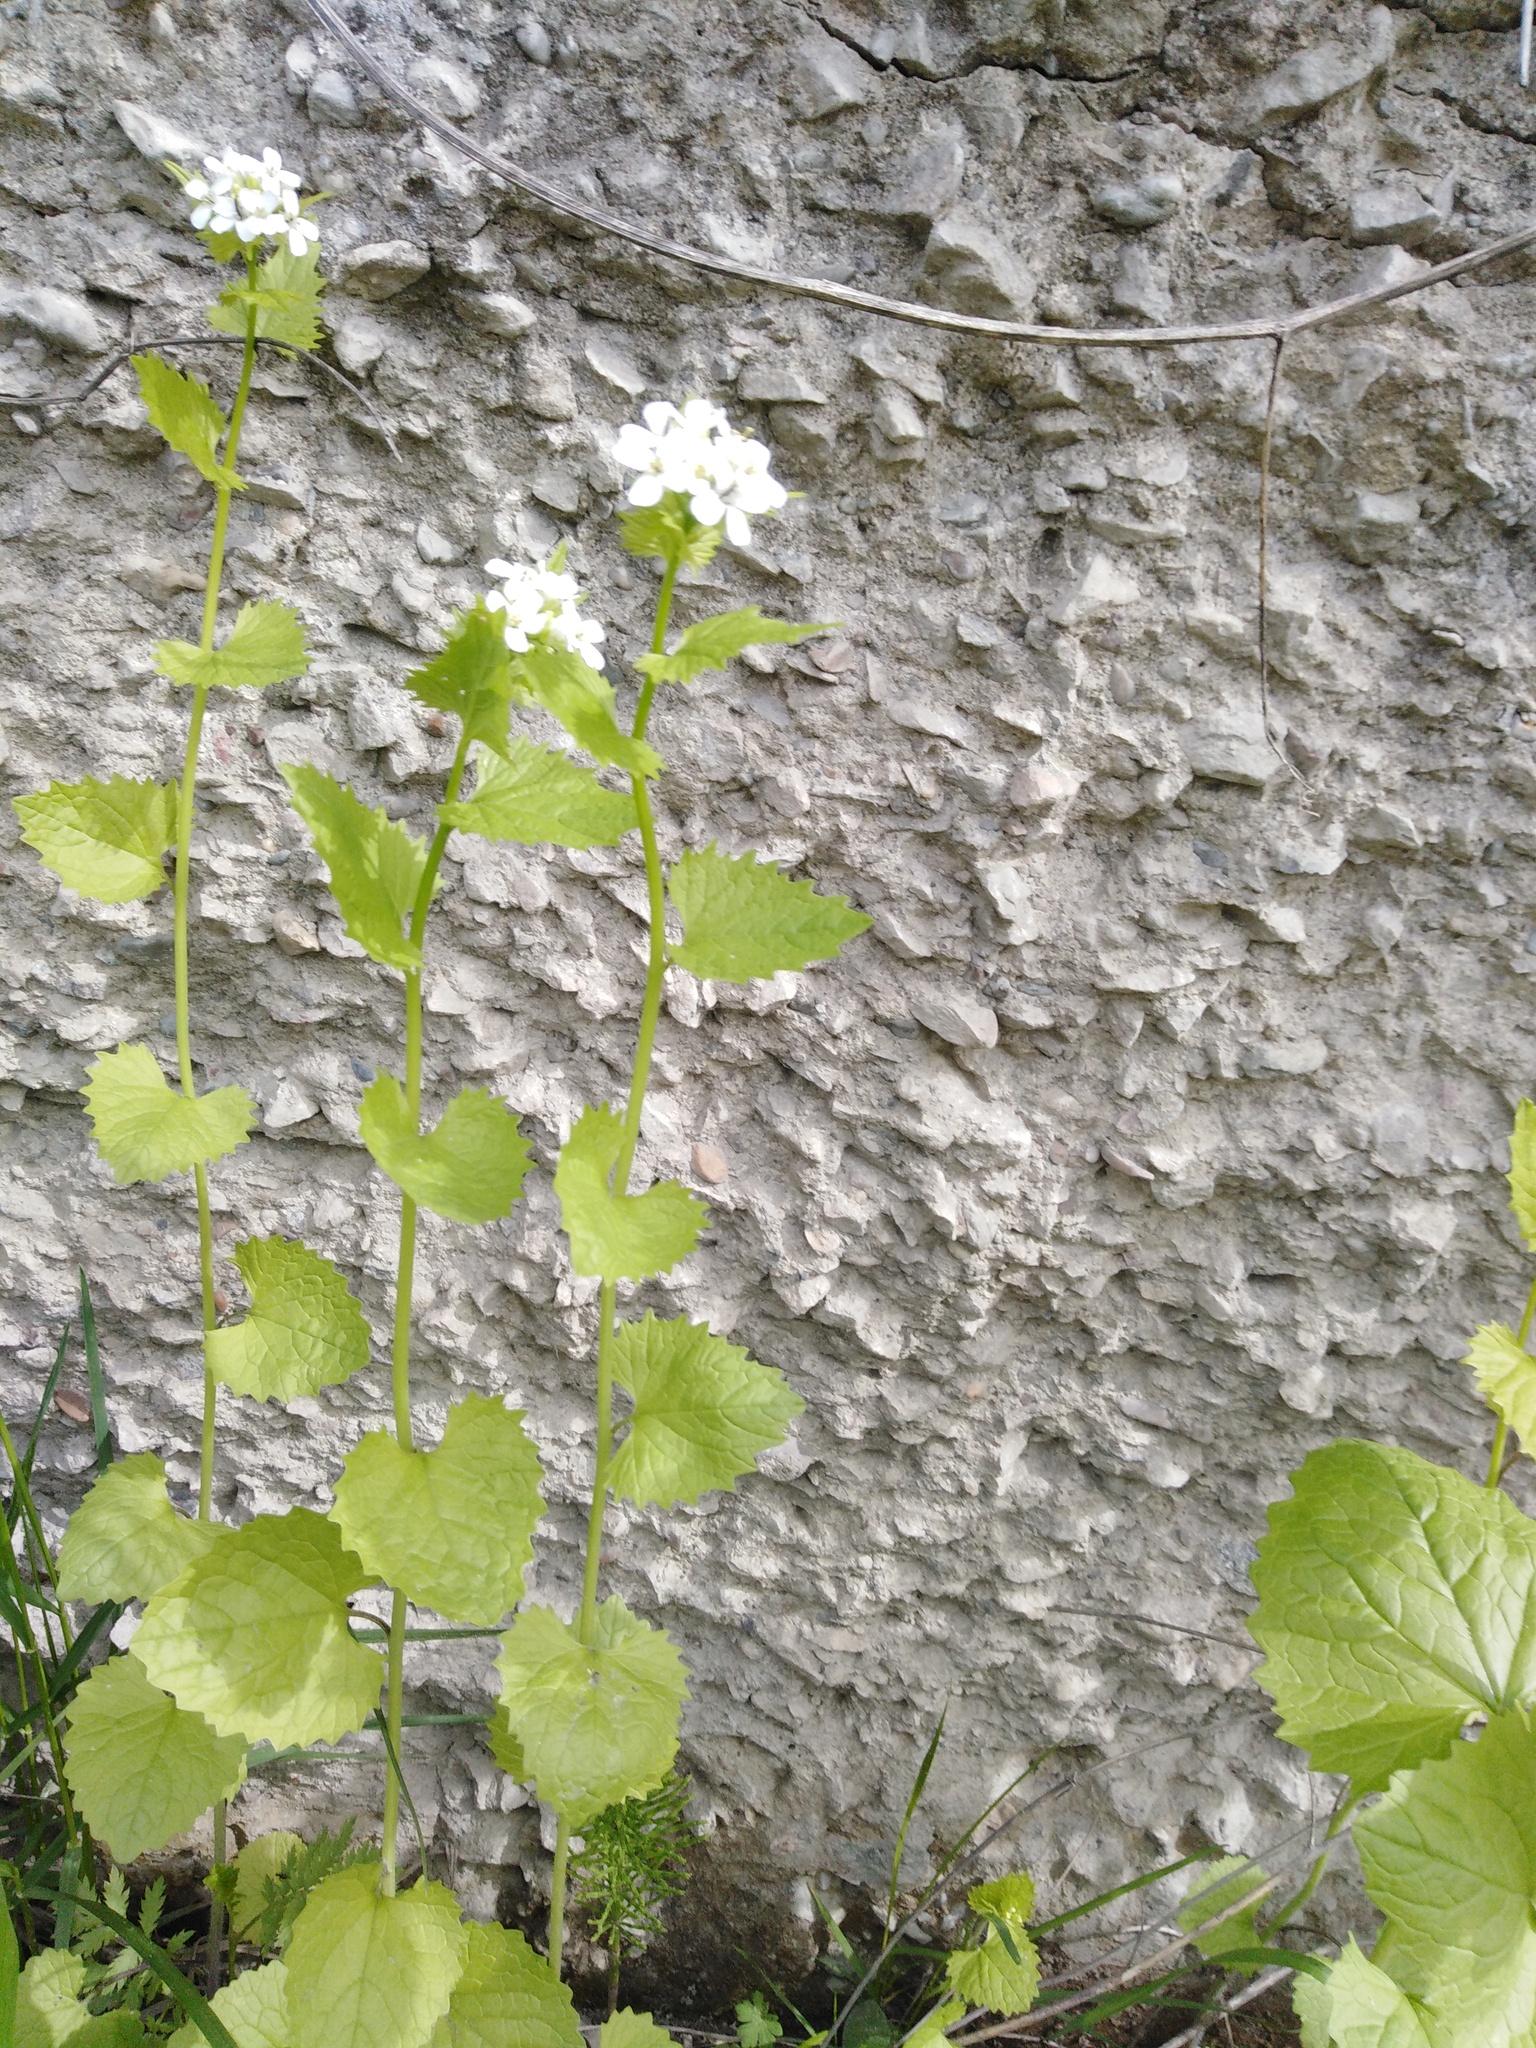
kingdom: Plantae
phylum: Tracheophyta
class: Magnoliopsida
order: Brassicales
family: Brassicaceae
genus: Alliaria
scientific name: Alliaria petiolata
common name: Garlic mustard
